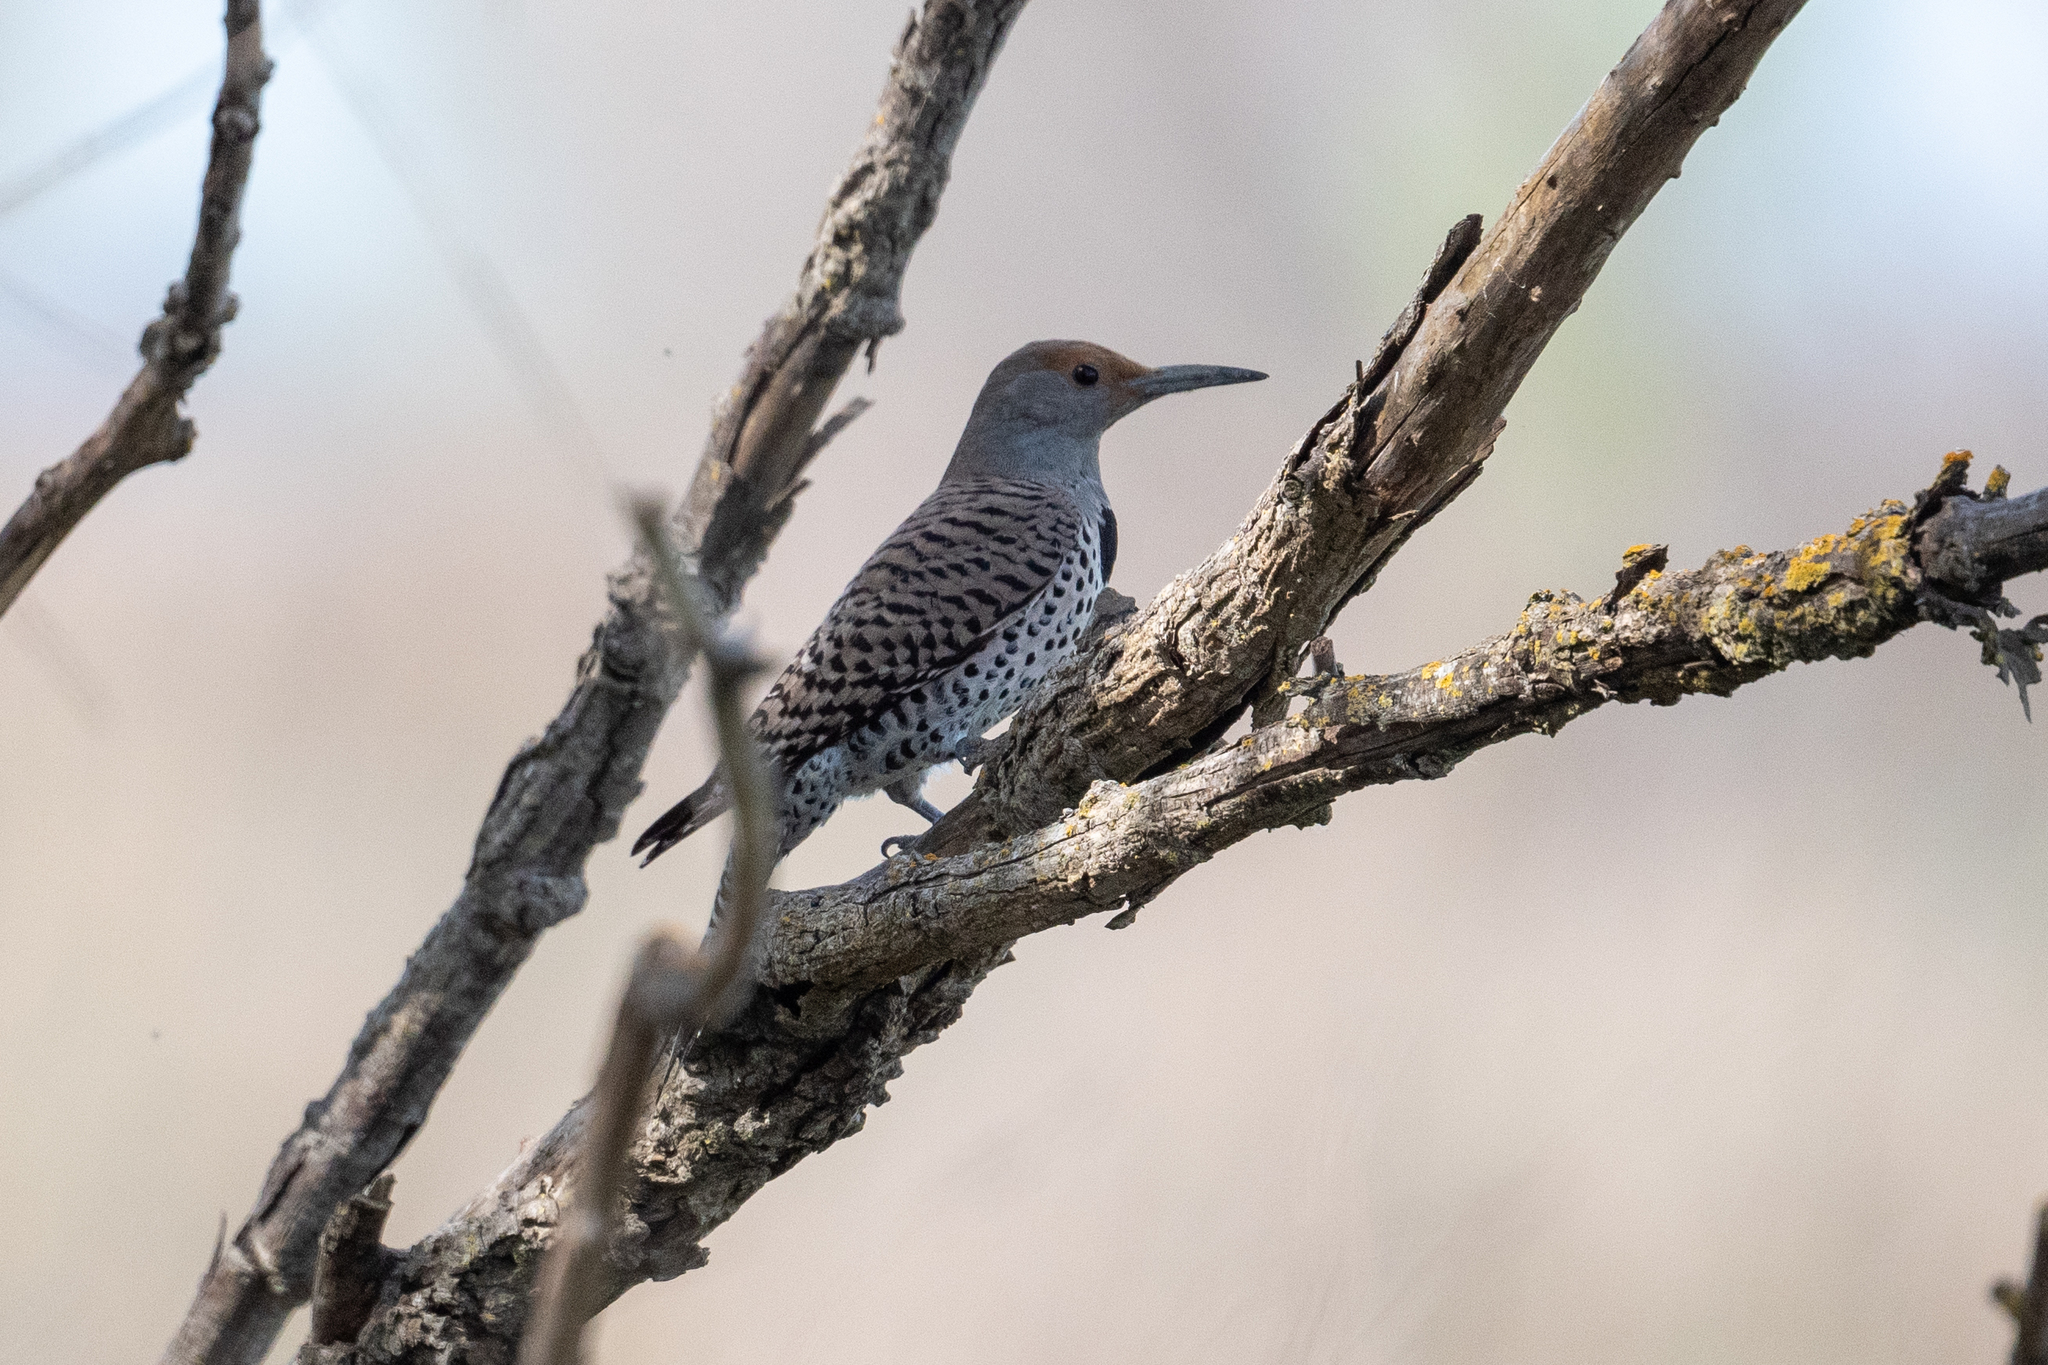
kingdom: Animalia
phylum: Chordata
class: Aves
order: Piciformes
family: Picidae
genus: Colaptes
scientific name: Colaptes auratus
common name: Northern flicker
